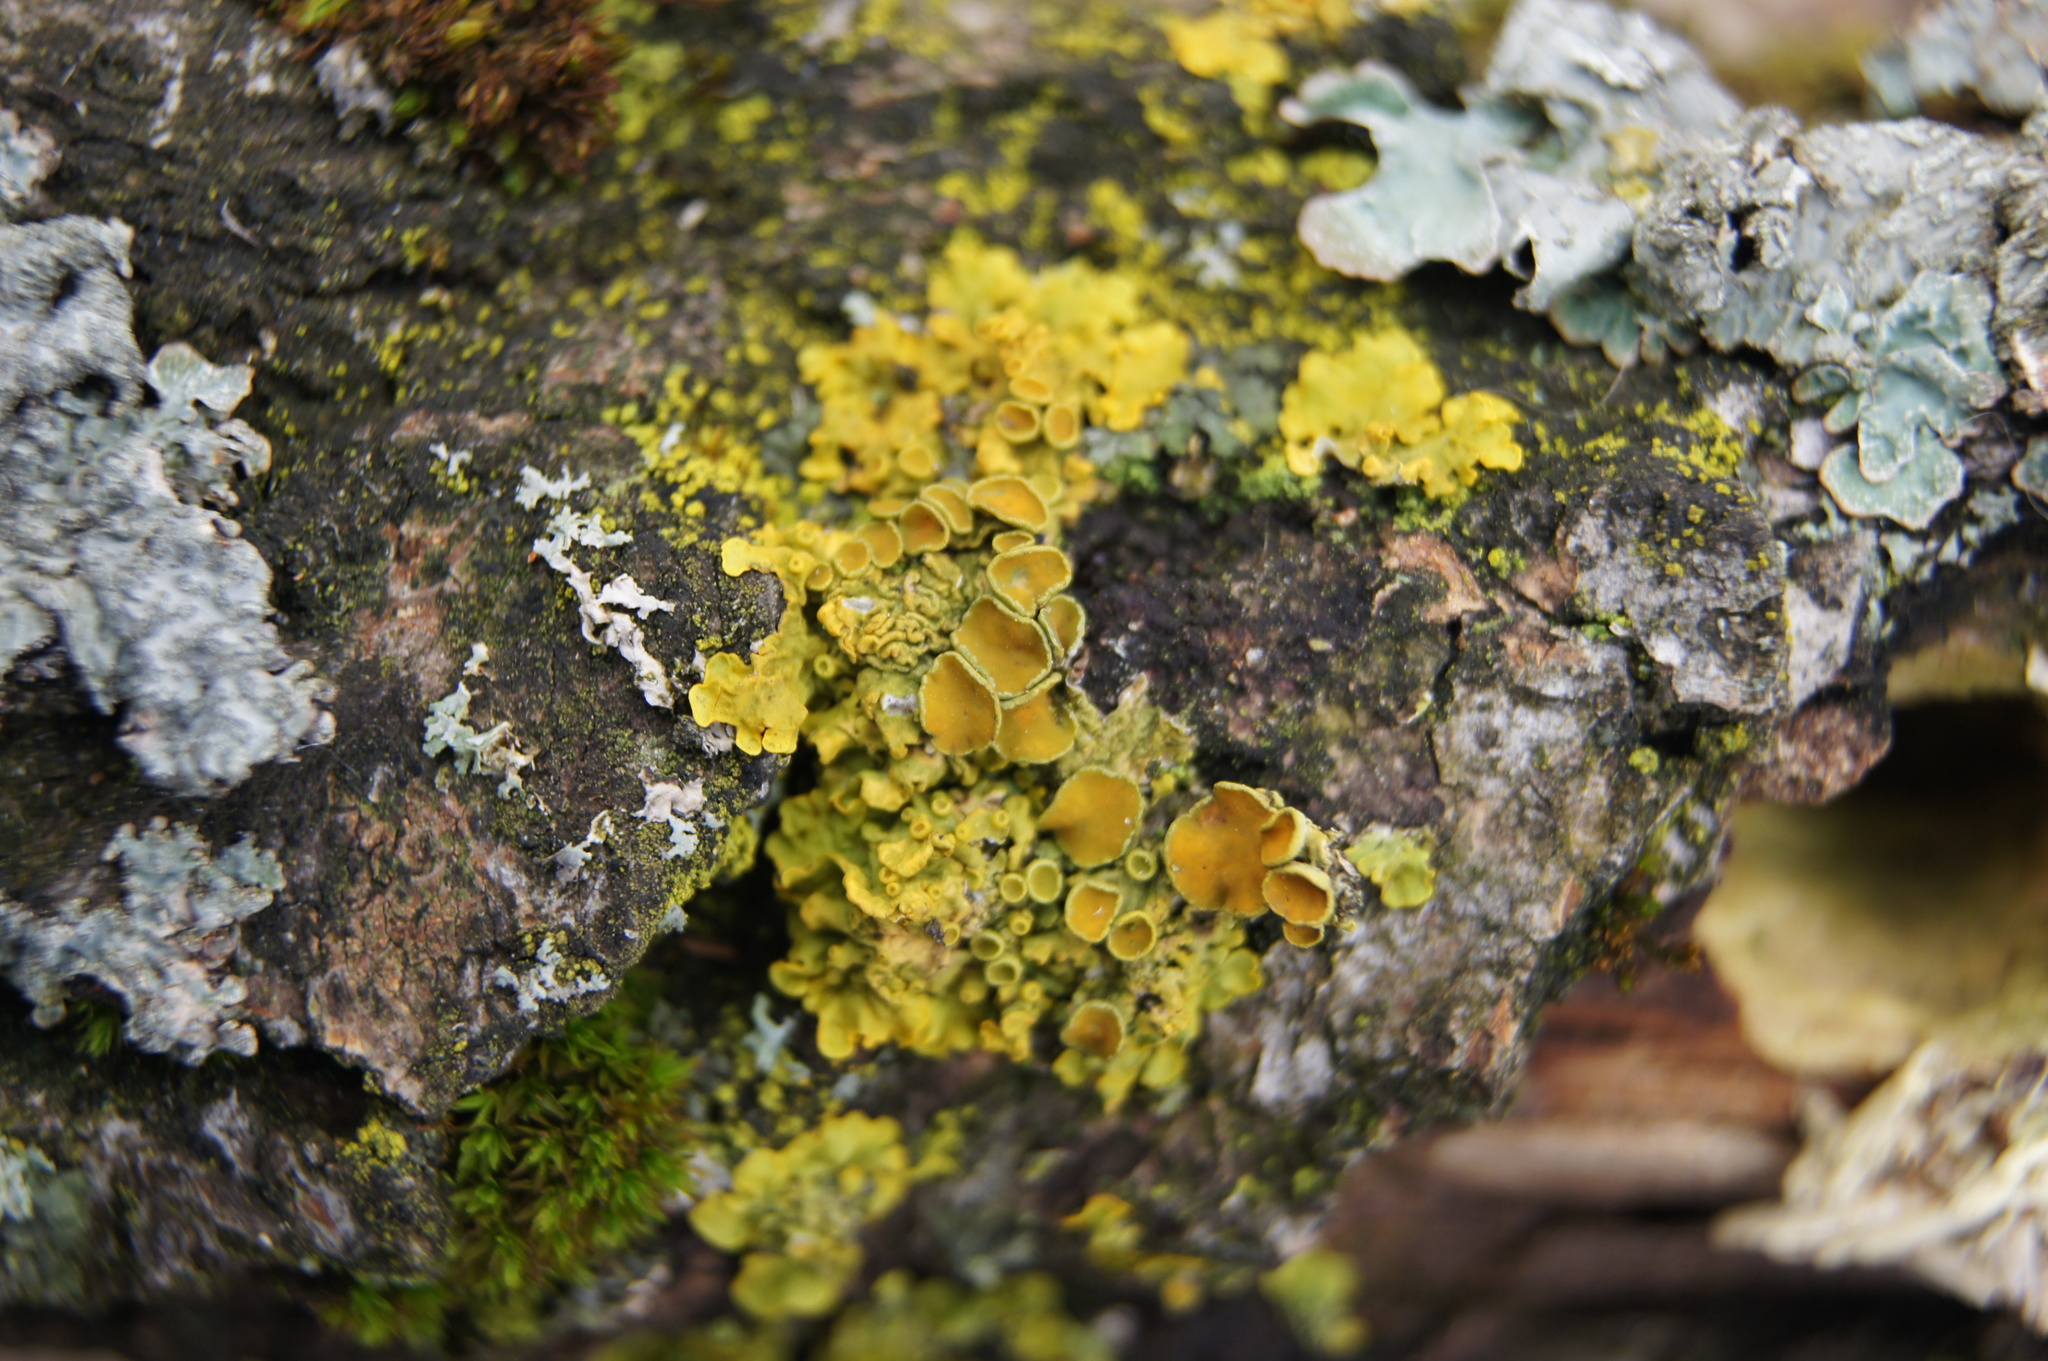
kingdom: Fungi
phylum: Ascomycota
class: Lecanoromycetes
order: Teloschistales
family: Teloschistaceae
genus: Xanthoria
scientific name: Xanthoria parietina
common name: Common orange lichen
